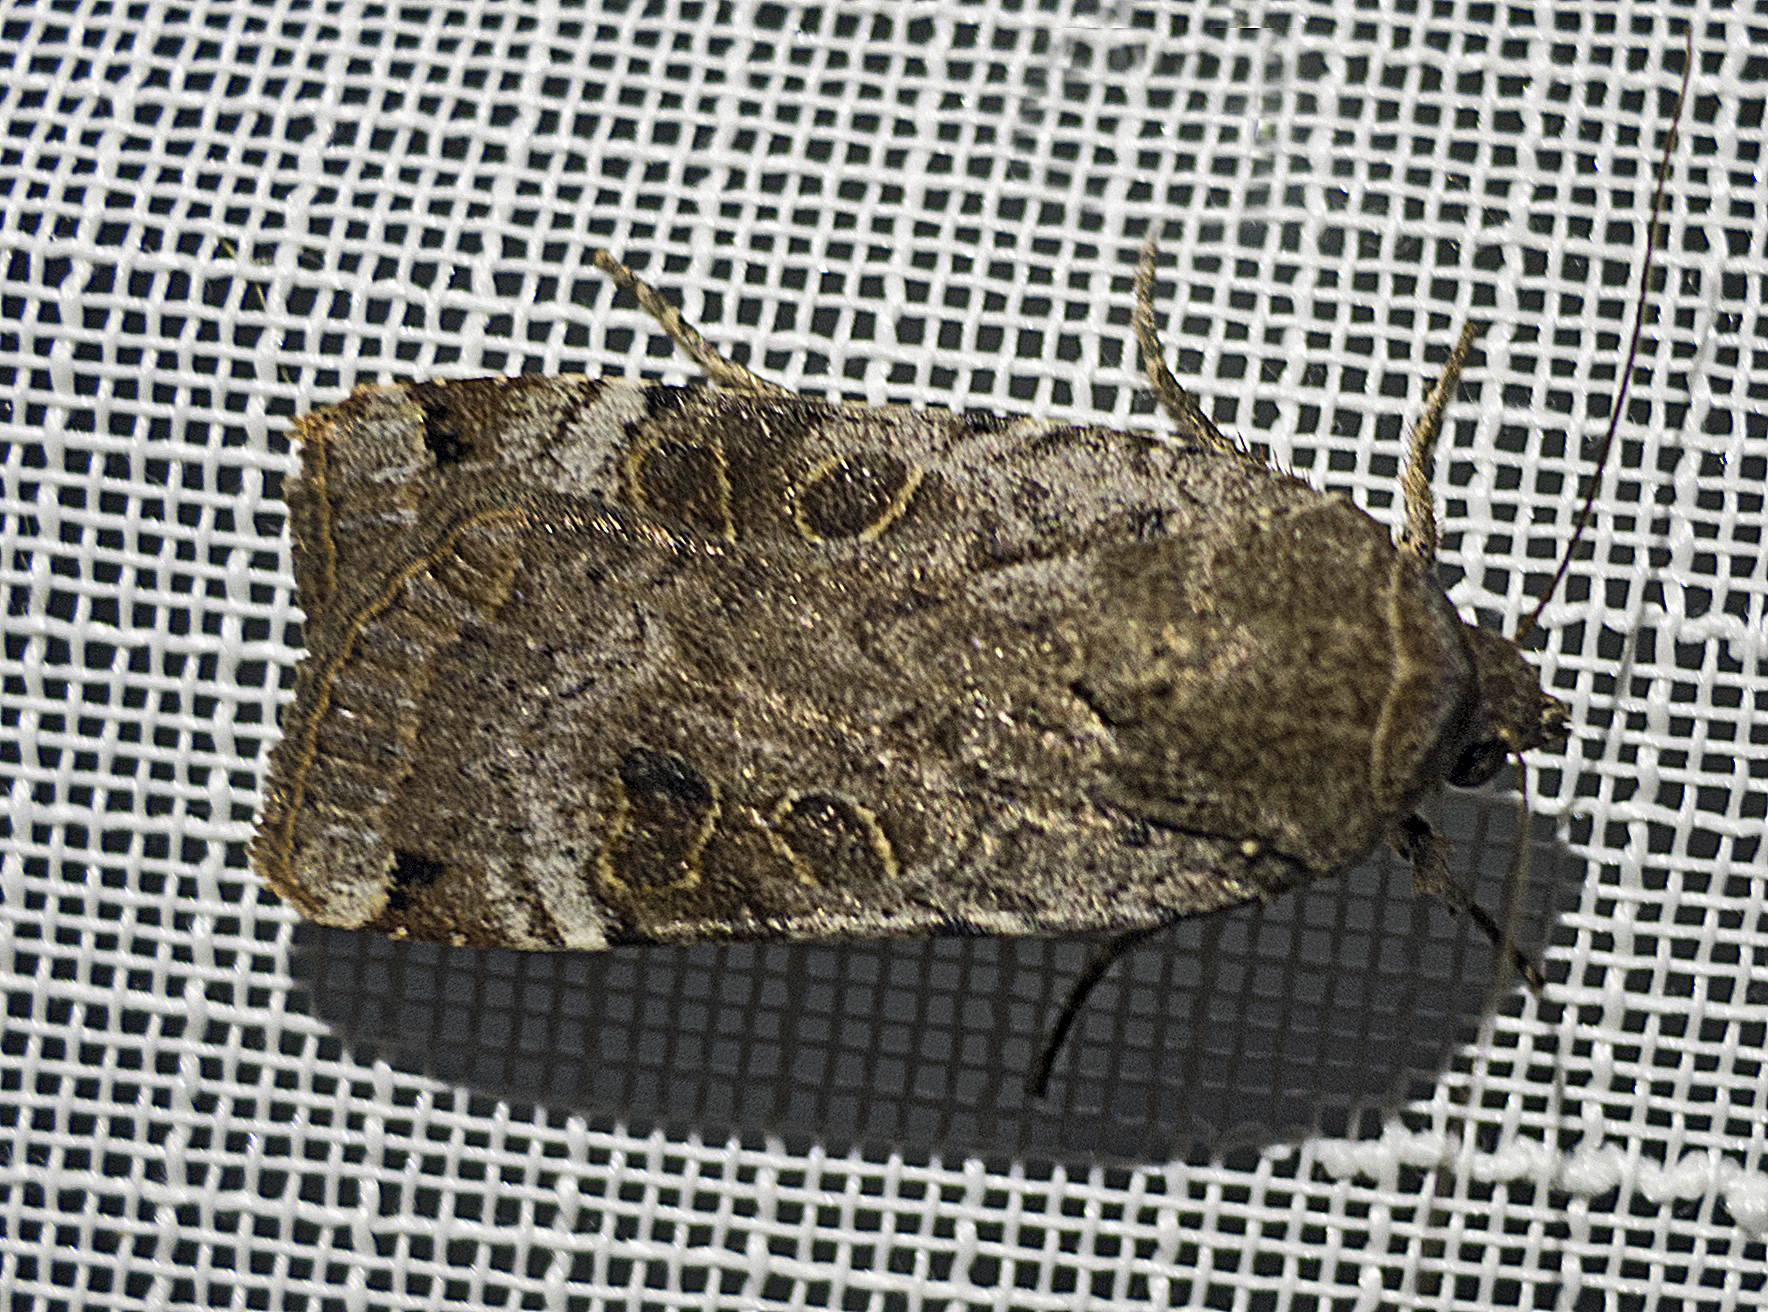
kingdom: Animalia
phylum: Arthropoda
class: Insecta
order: Lepidoptera
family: Noctuidae
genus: Noctua
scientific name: Noctua interposita
